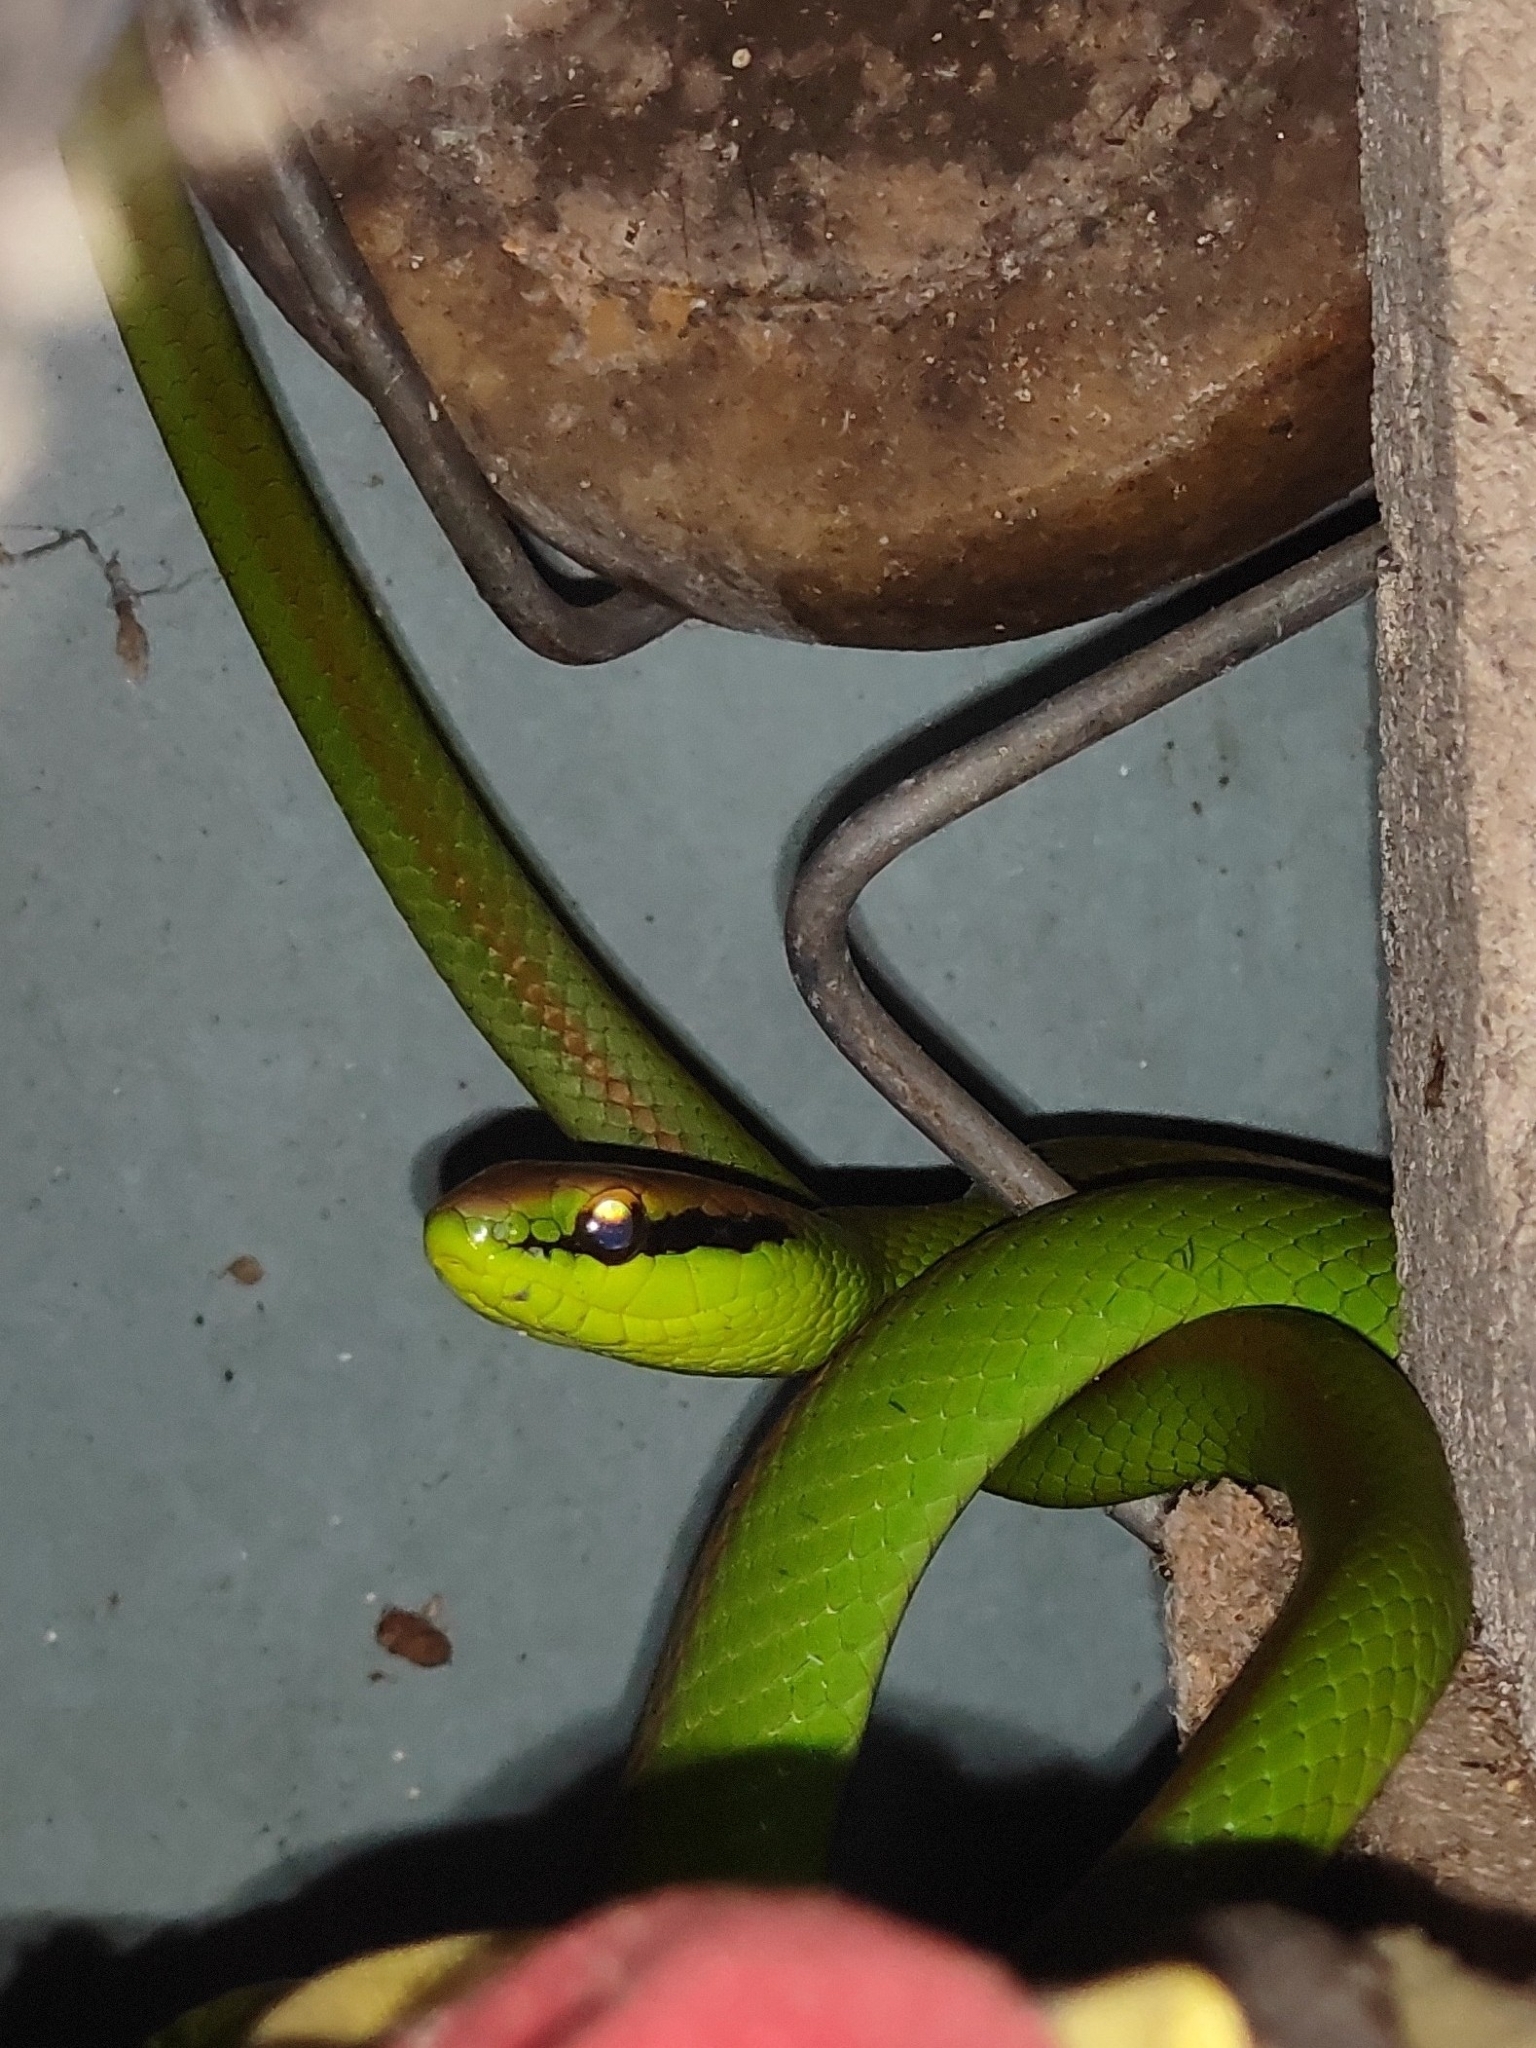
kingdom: Animalia
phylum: Chordata
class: Squamata
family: Colubridae
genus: Philodryas
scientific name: Philodryas olfersii
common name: Lichtenstein's green racer
